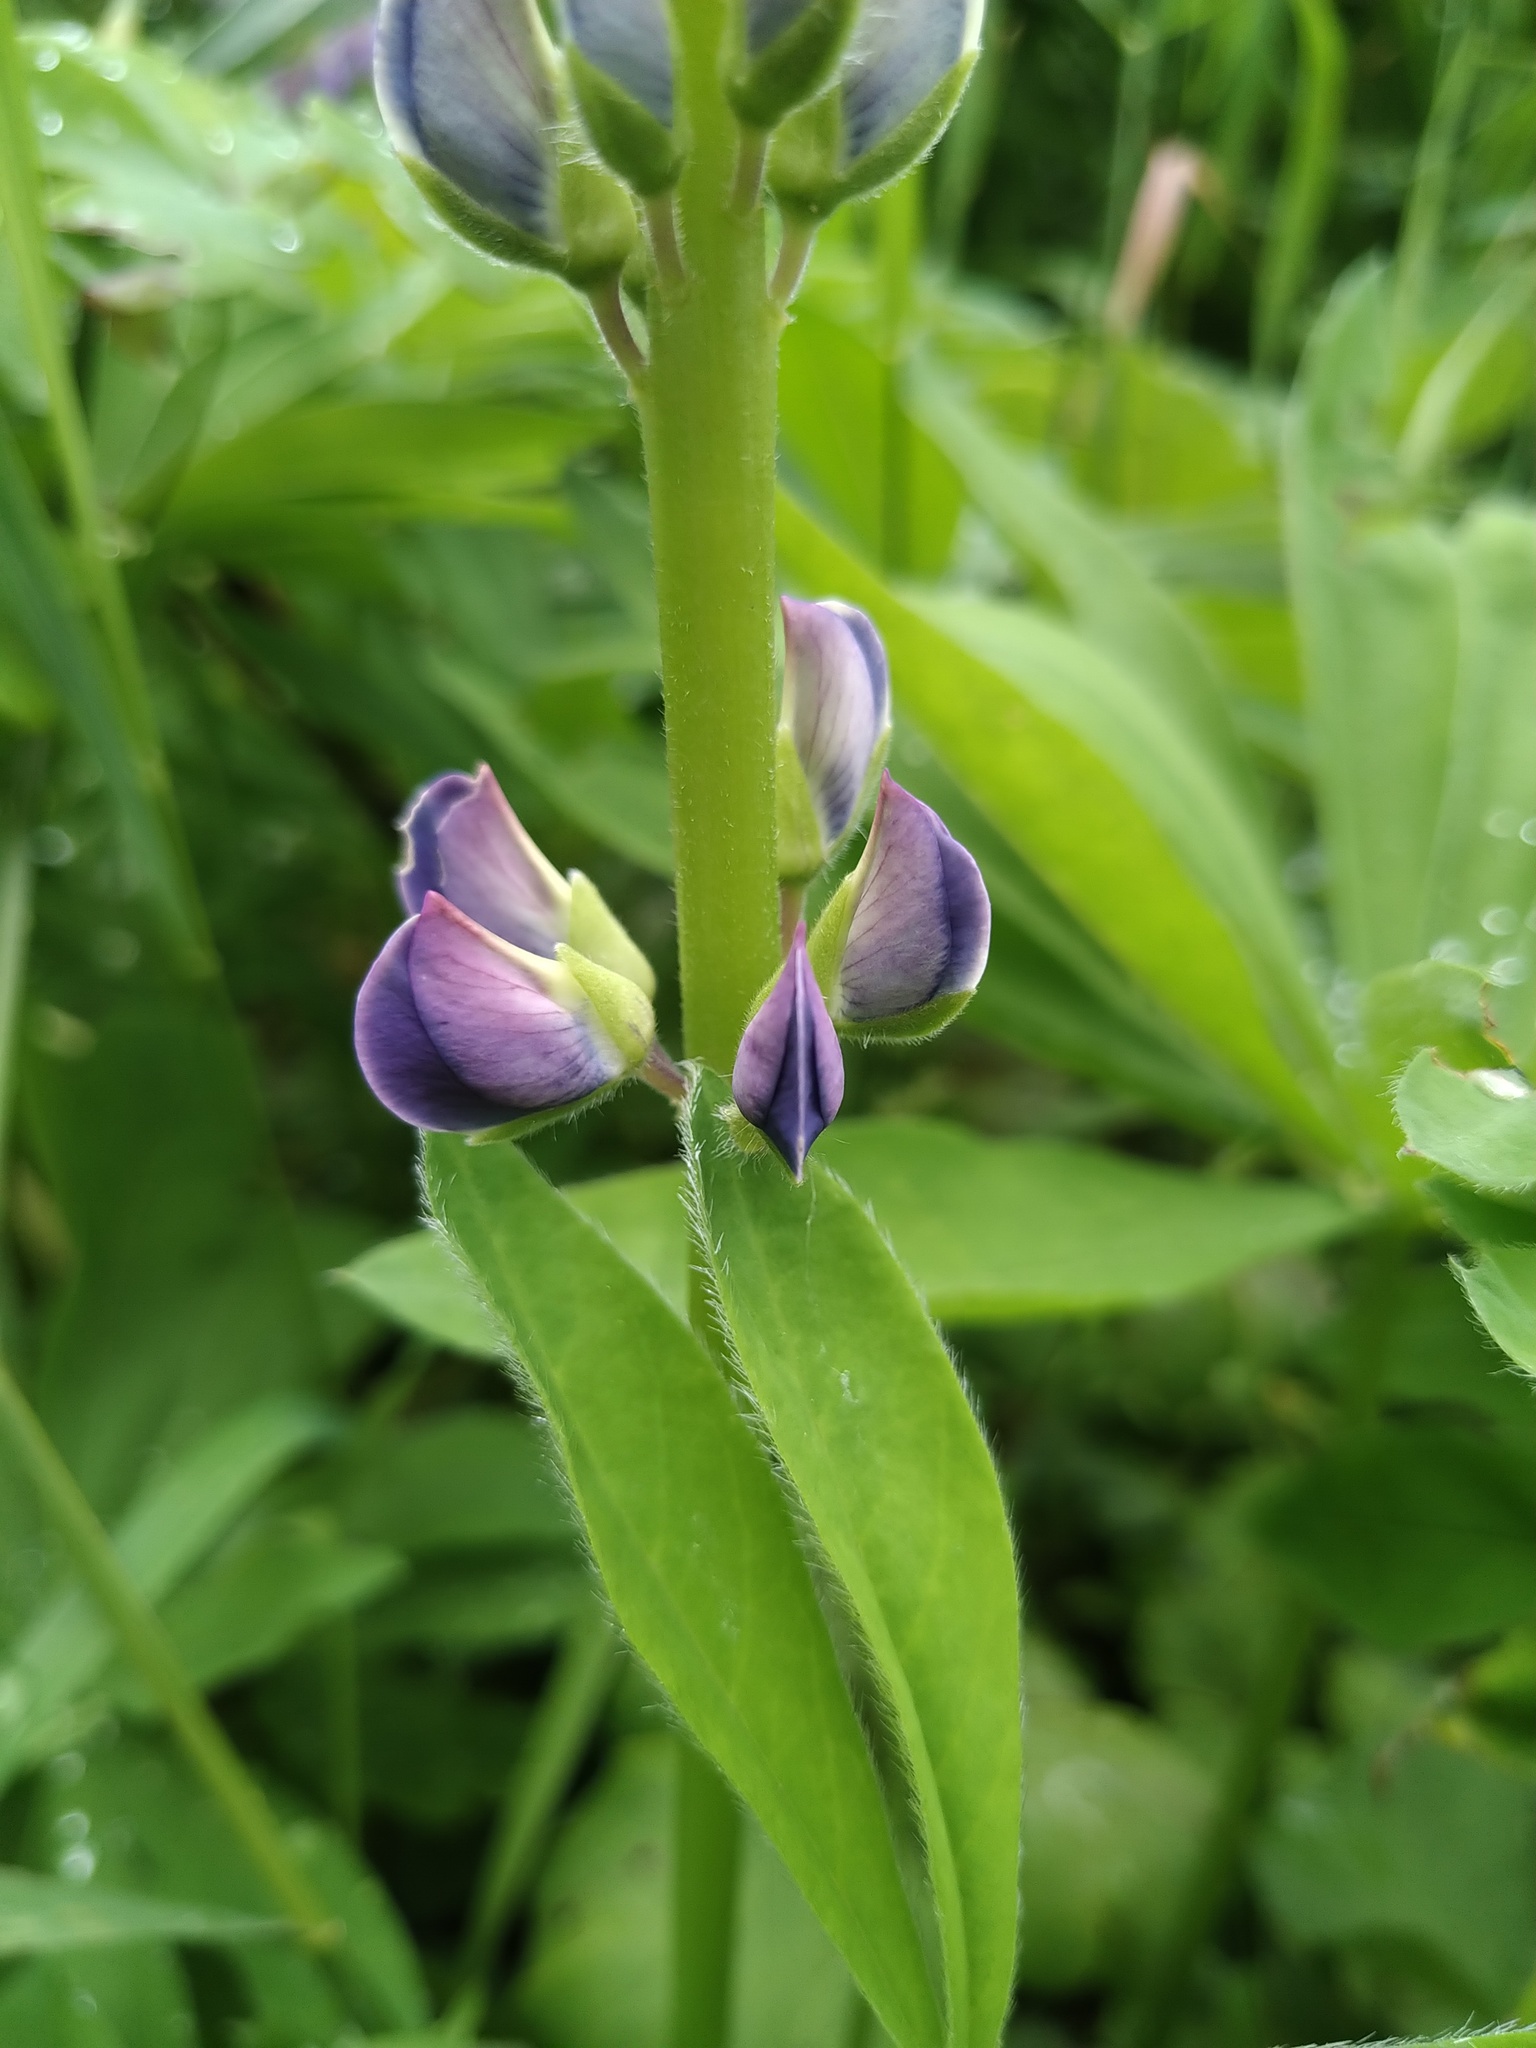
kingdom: Plantae
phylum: Tracheophyta
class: Magnoliopsida
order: Fabales
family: Fabaceae
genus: Lupinus
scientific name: Lupinus polyphyllus
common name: Garden lupin
